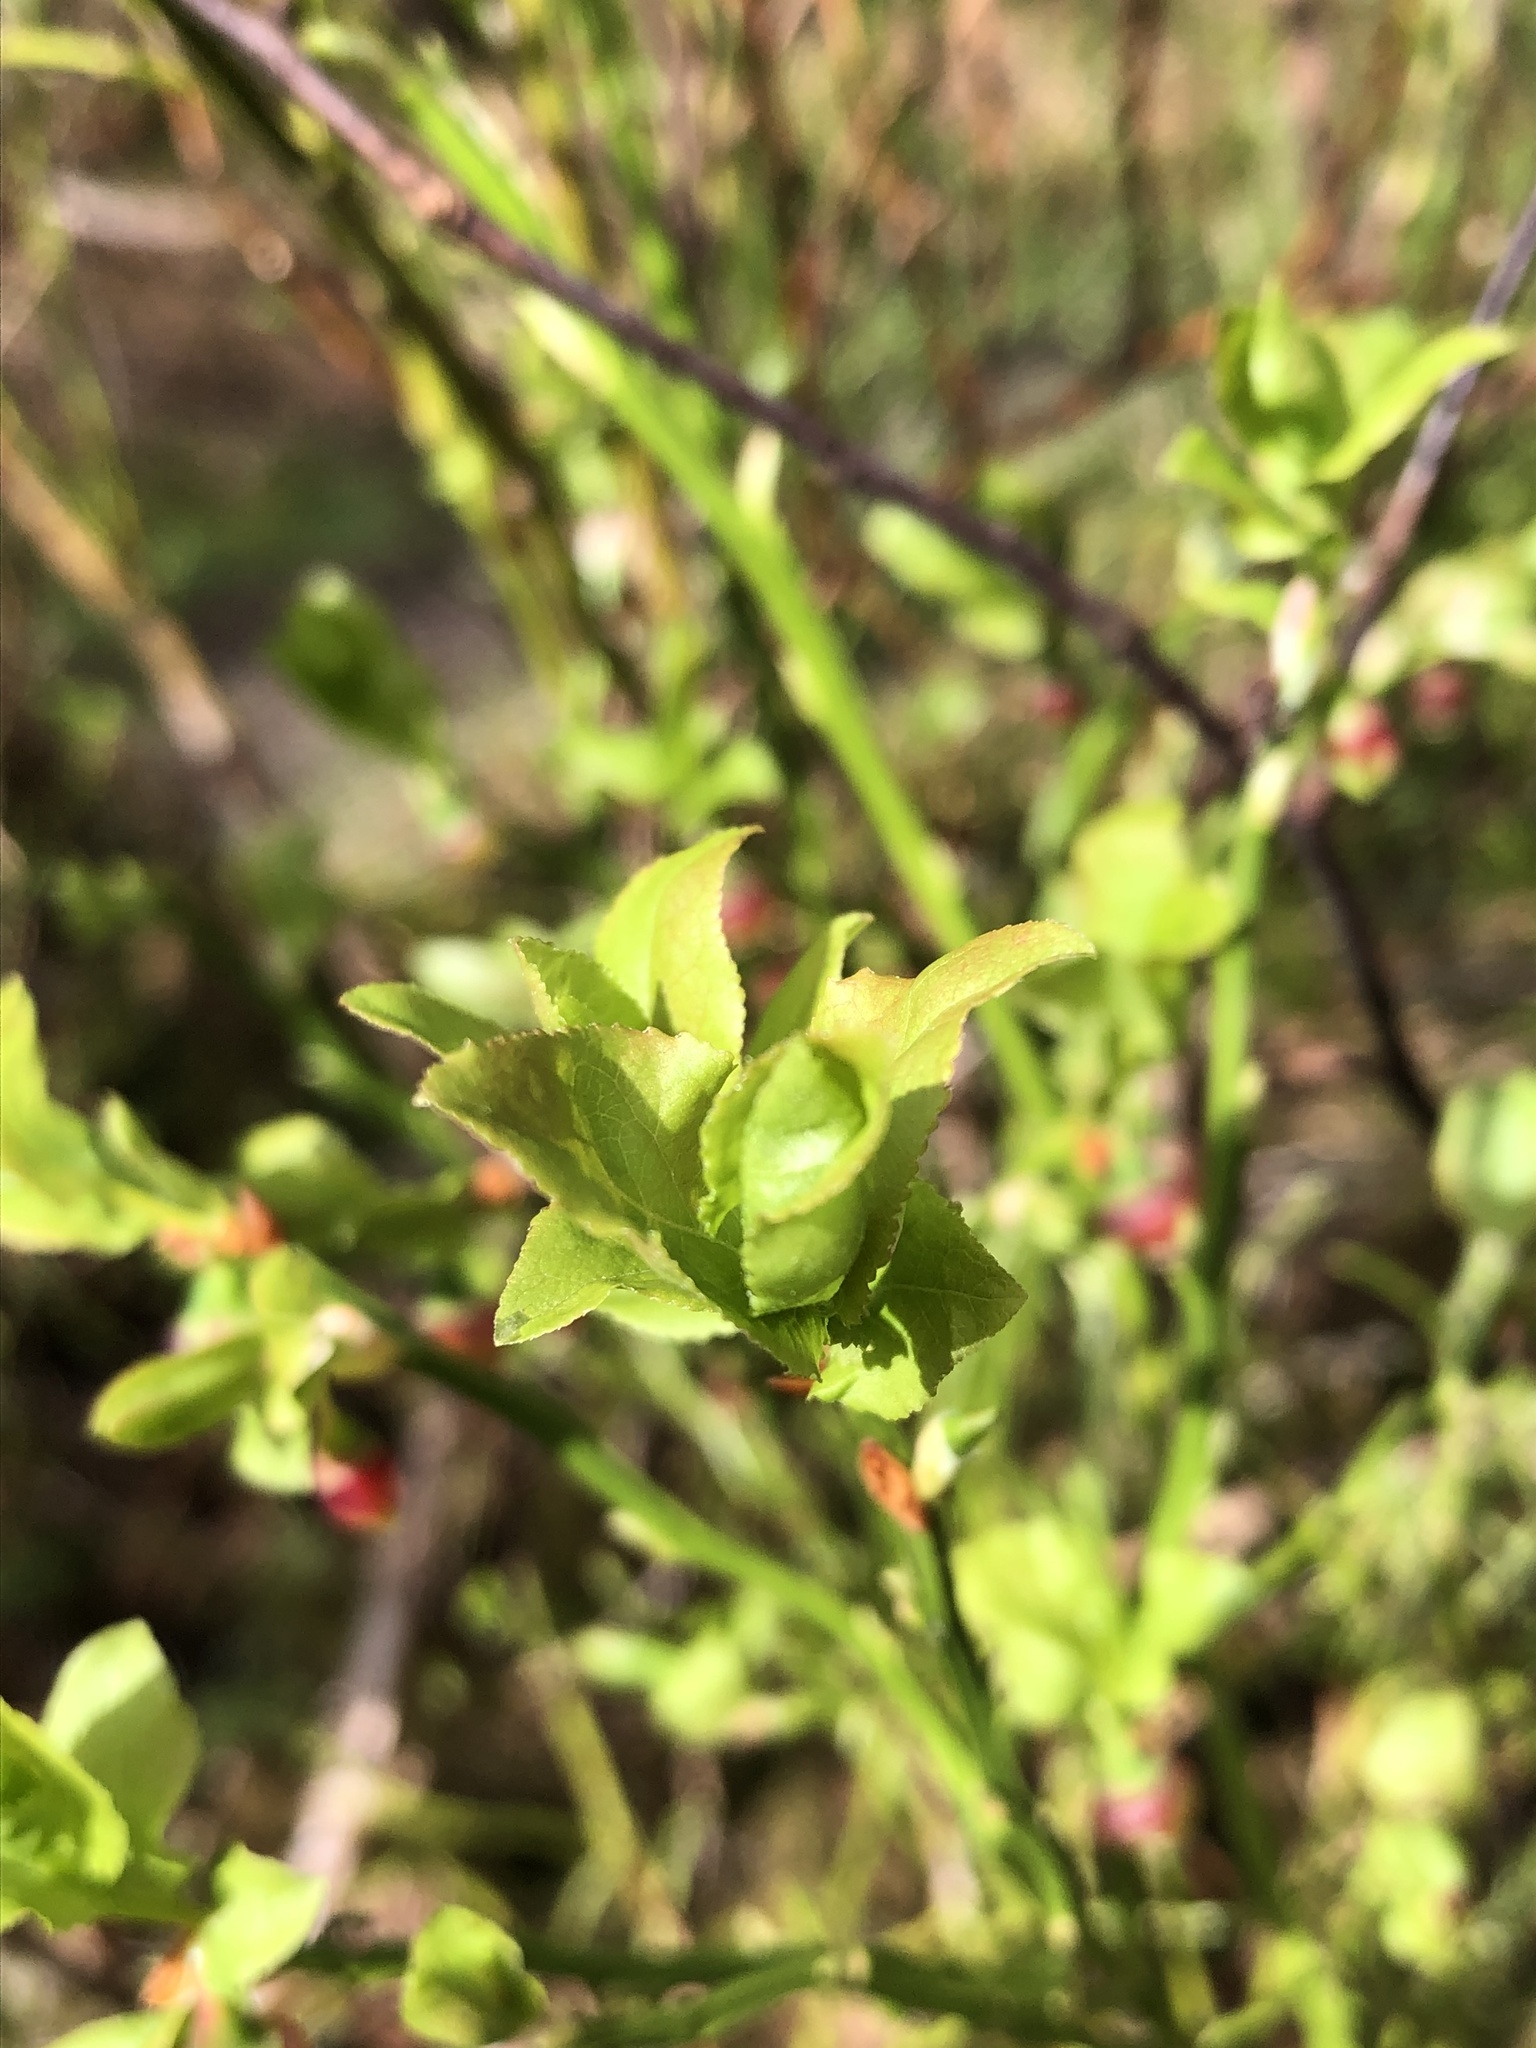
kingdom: Plantae
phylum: Tracheophyta
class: Magnoliopsida
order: Ericales
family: Ericaceae
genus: Vaccinium
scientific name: Vaccinium myrtillus
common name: Bilberry
